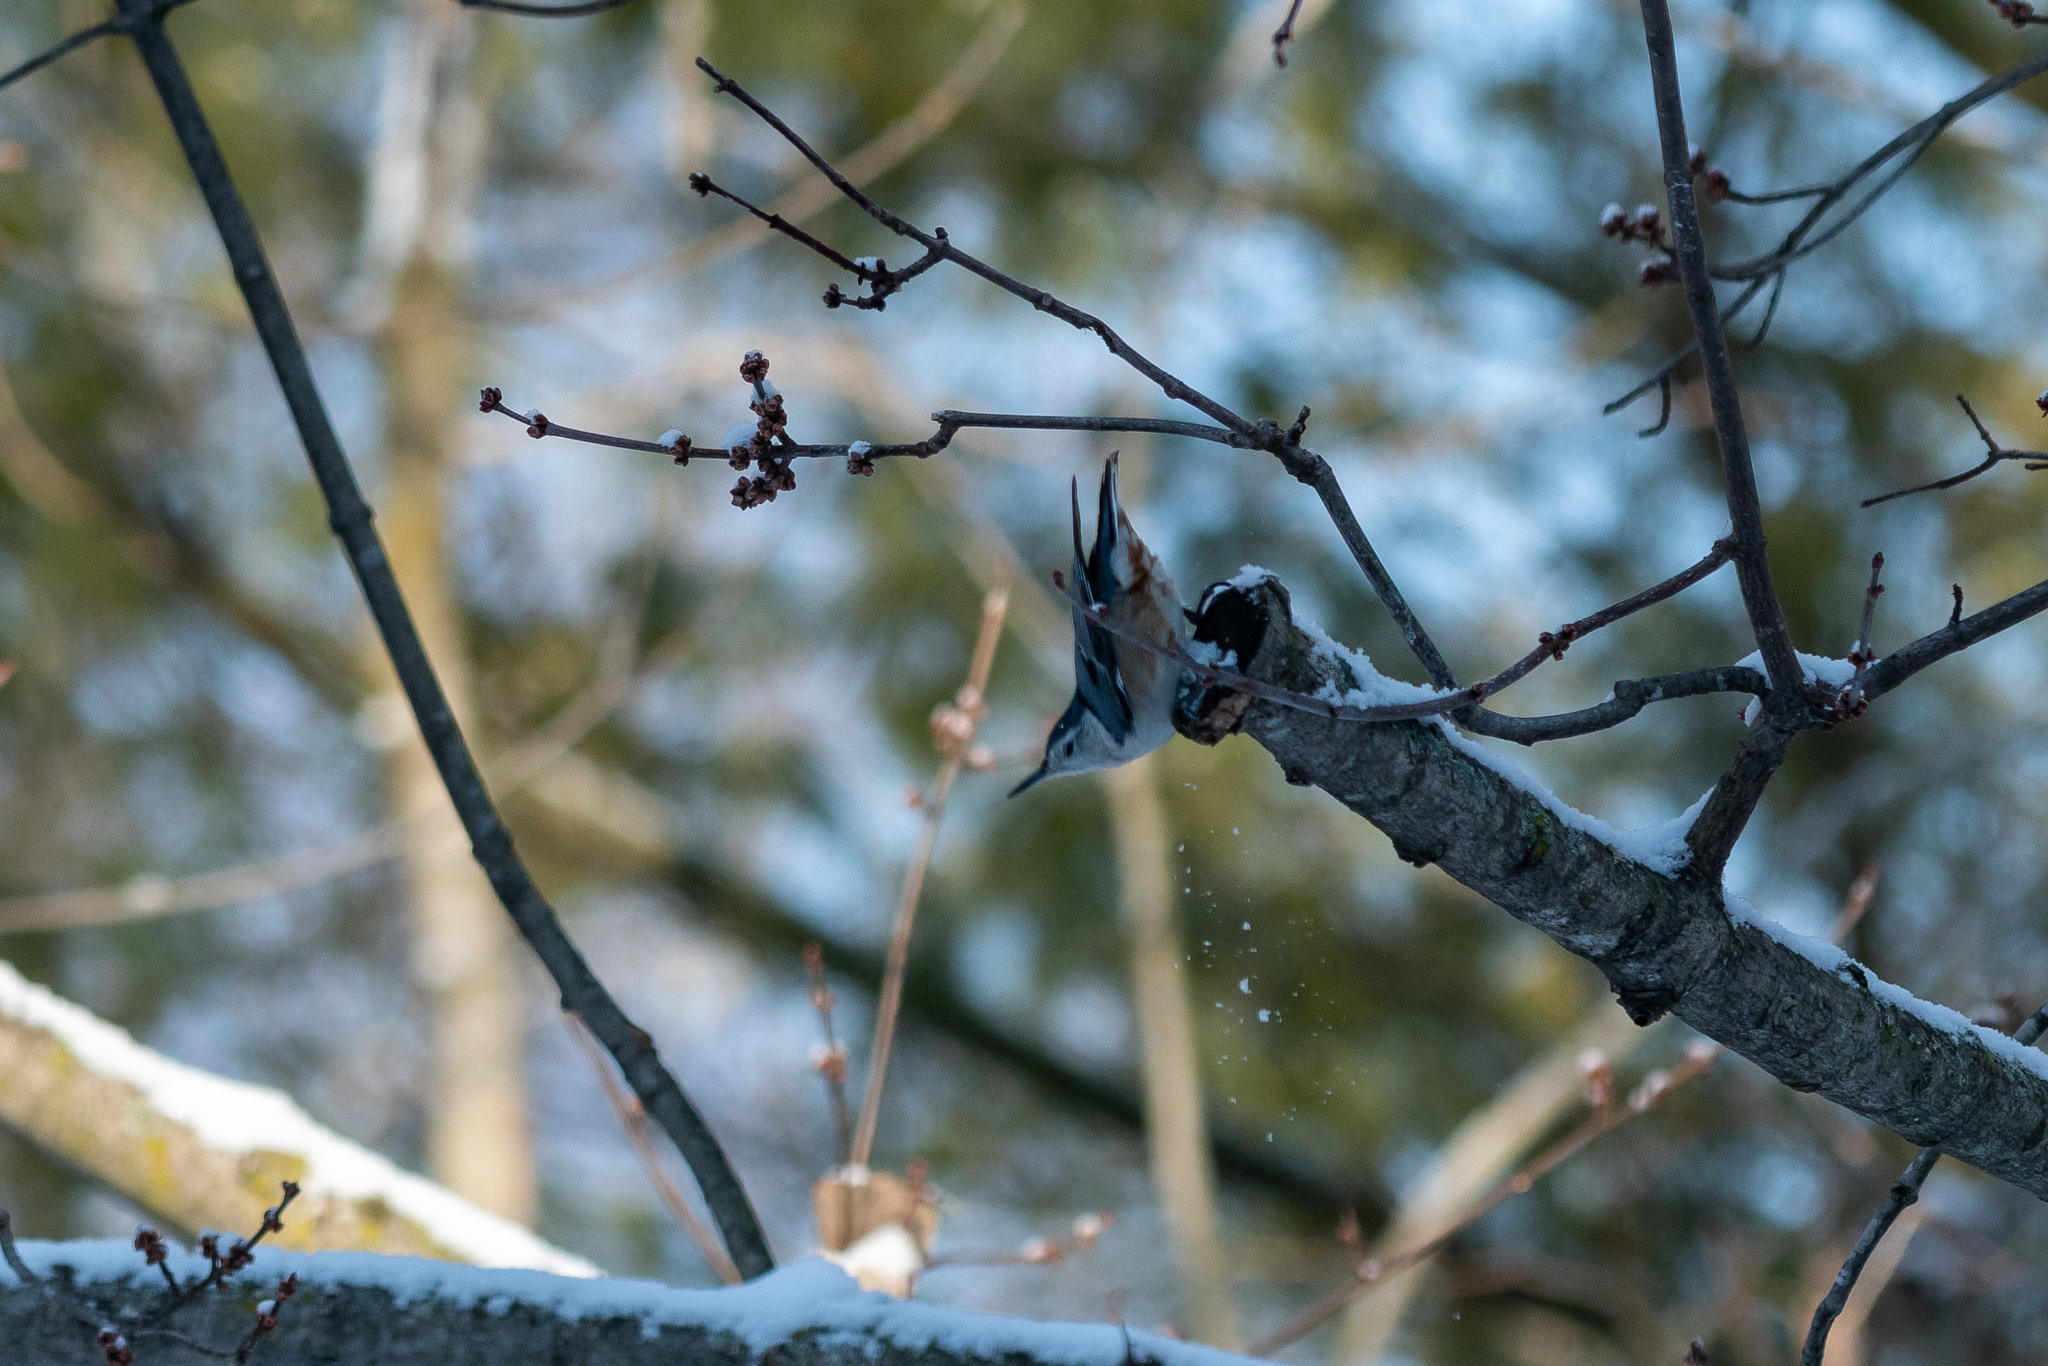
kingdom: Animalia
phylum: Chordata
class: Aves
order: Passeriformes
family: Sittidae
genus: Sitta
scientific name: Sitta carolinensis
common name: White-breasted nuthatch
